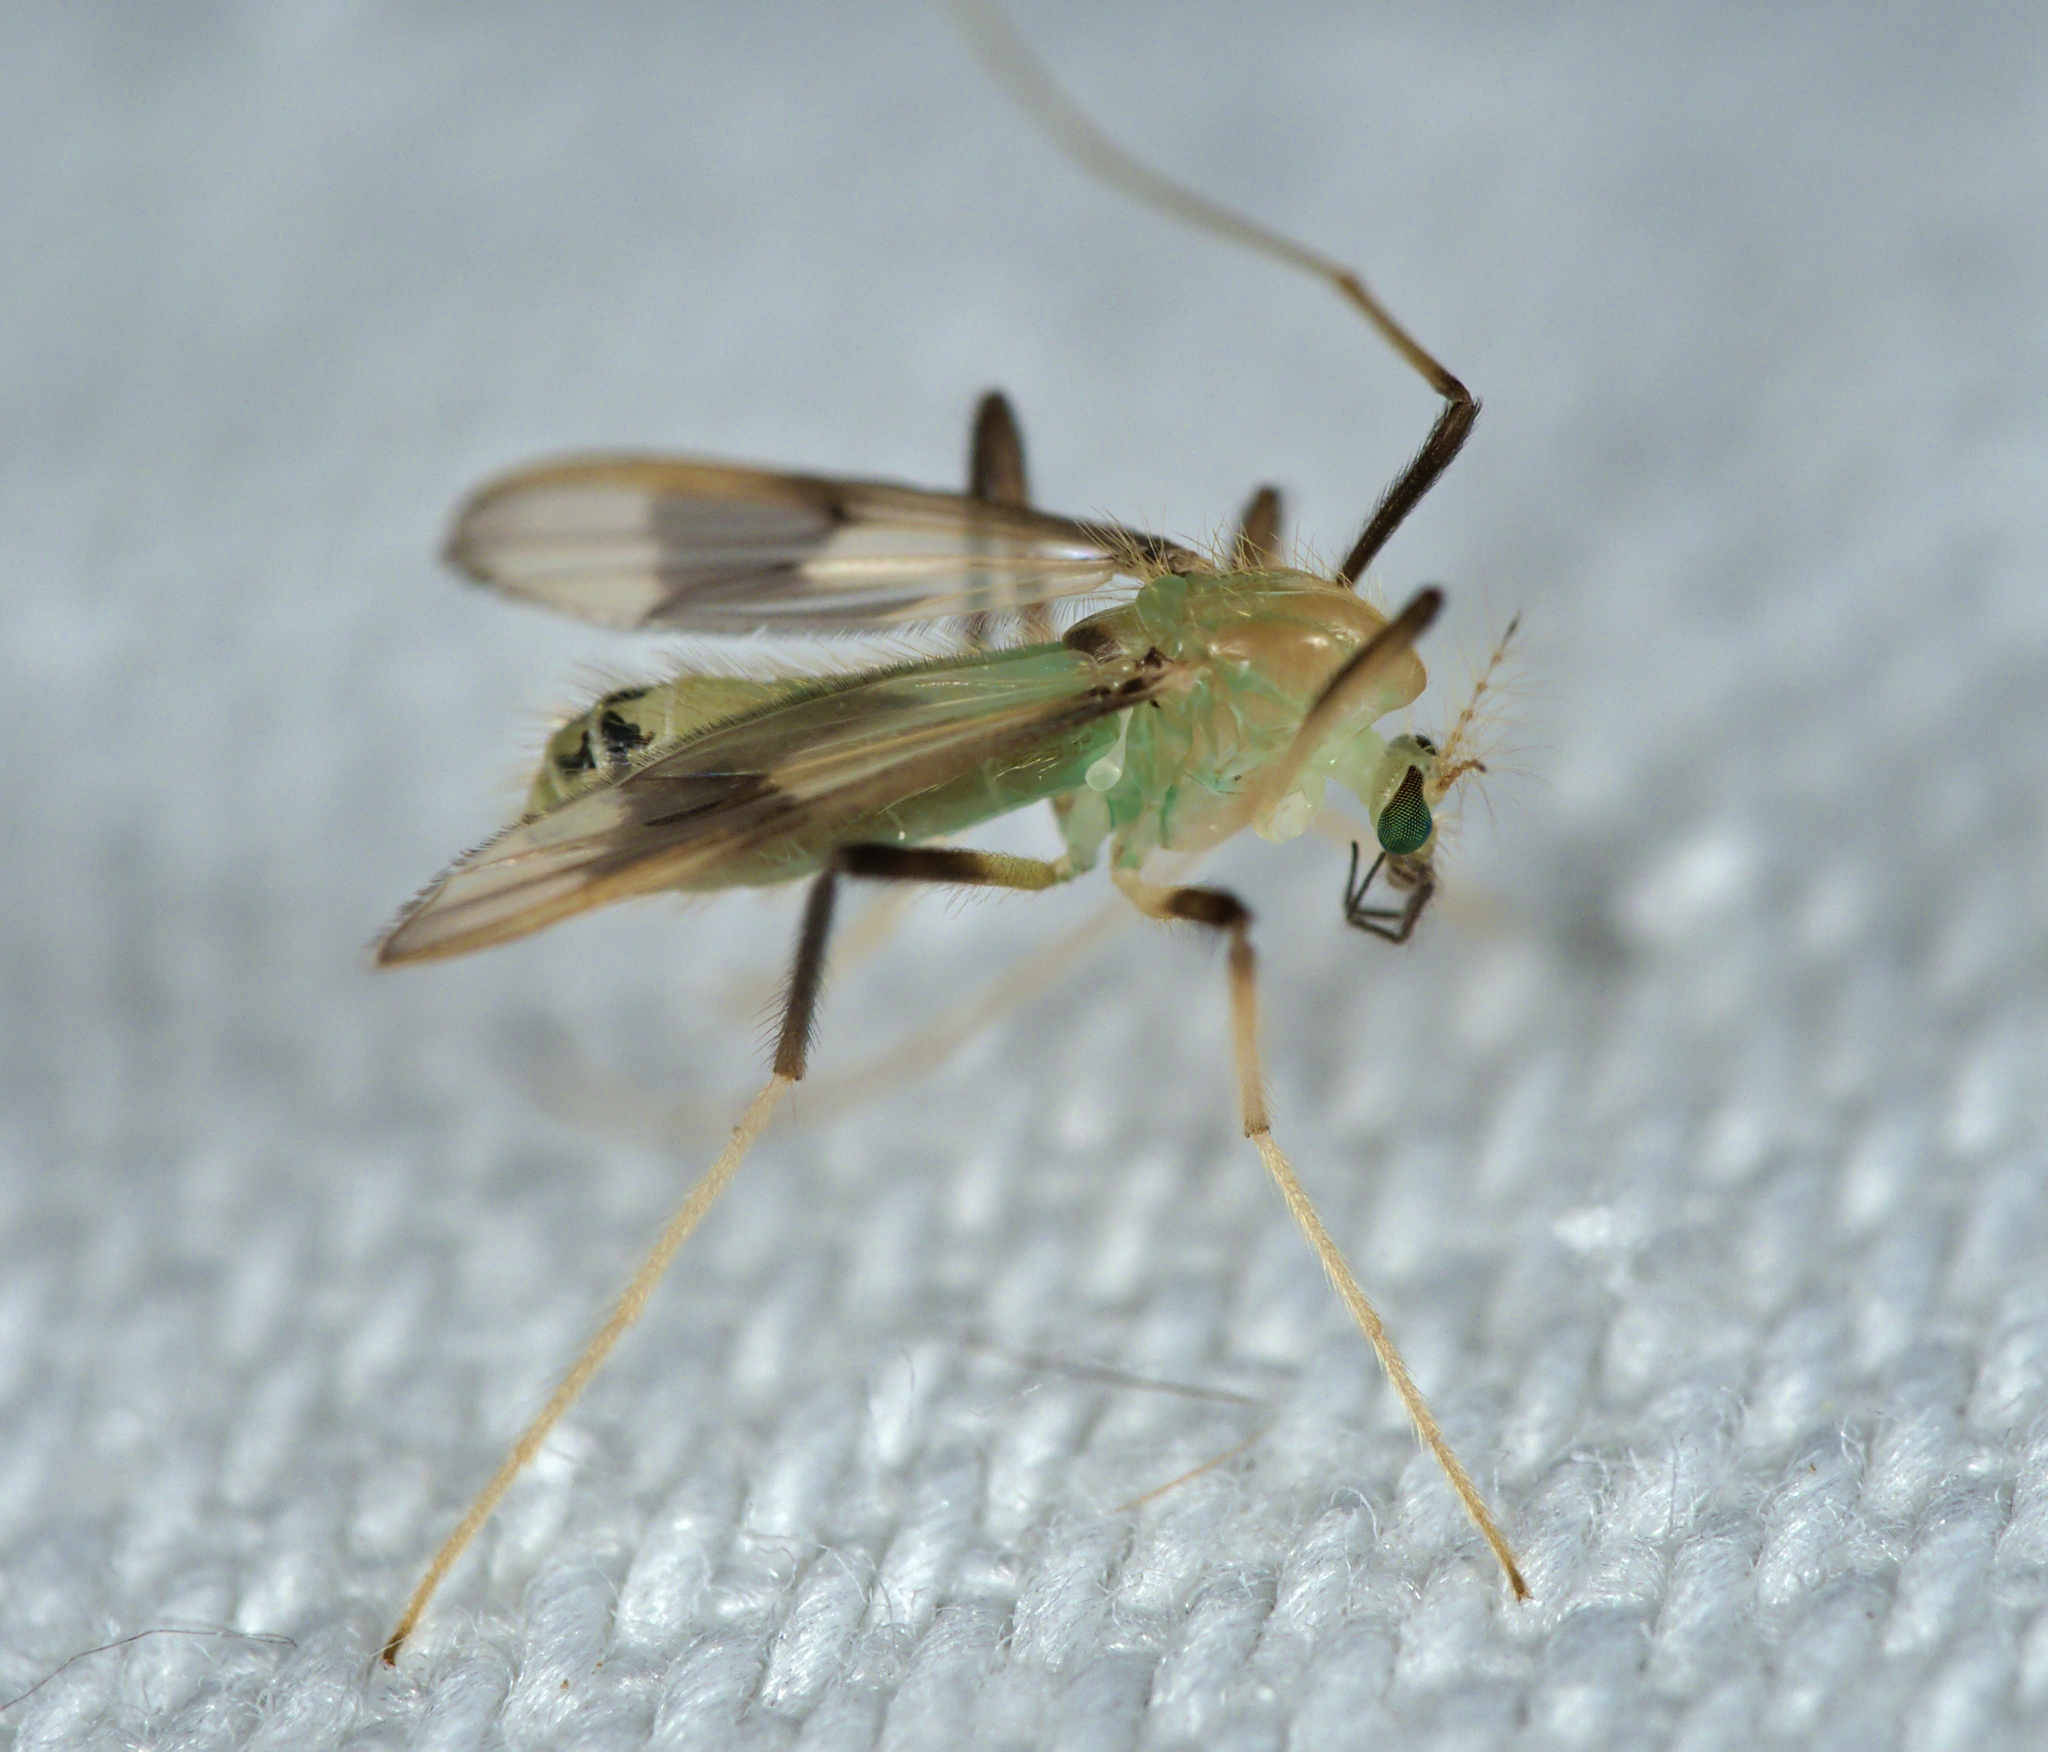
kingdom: Animalia
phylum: Arthropoda
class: Insecta
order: Diptera
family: Chironomidae
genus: Stenochironomus
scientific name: Stenochironomus gibbus
